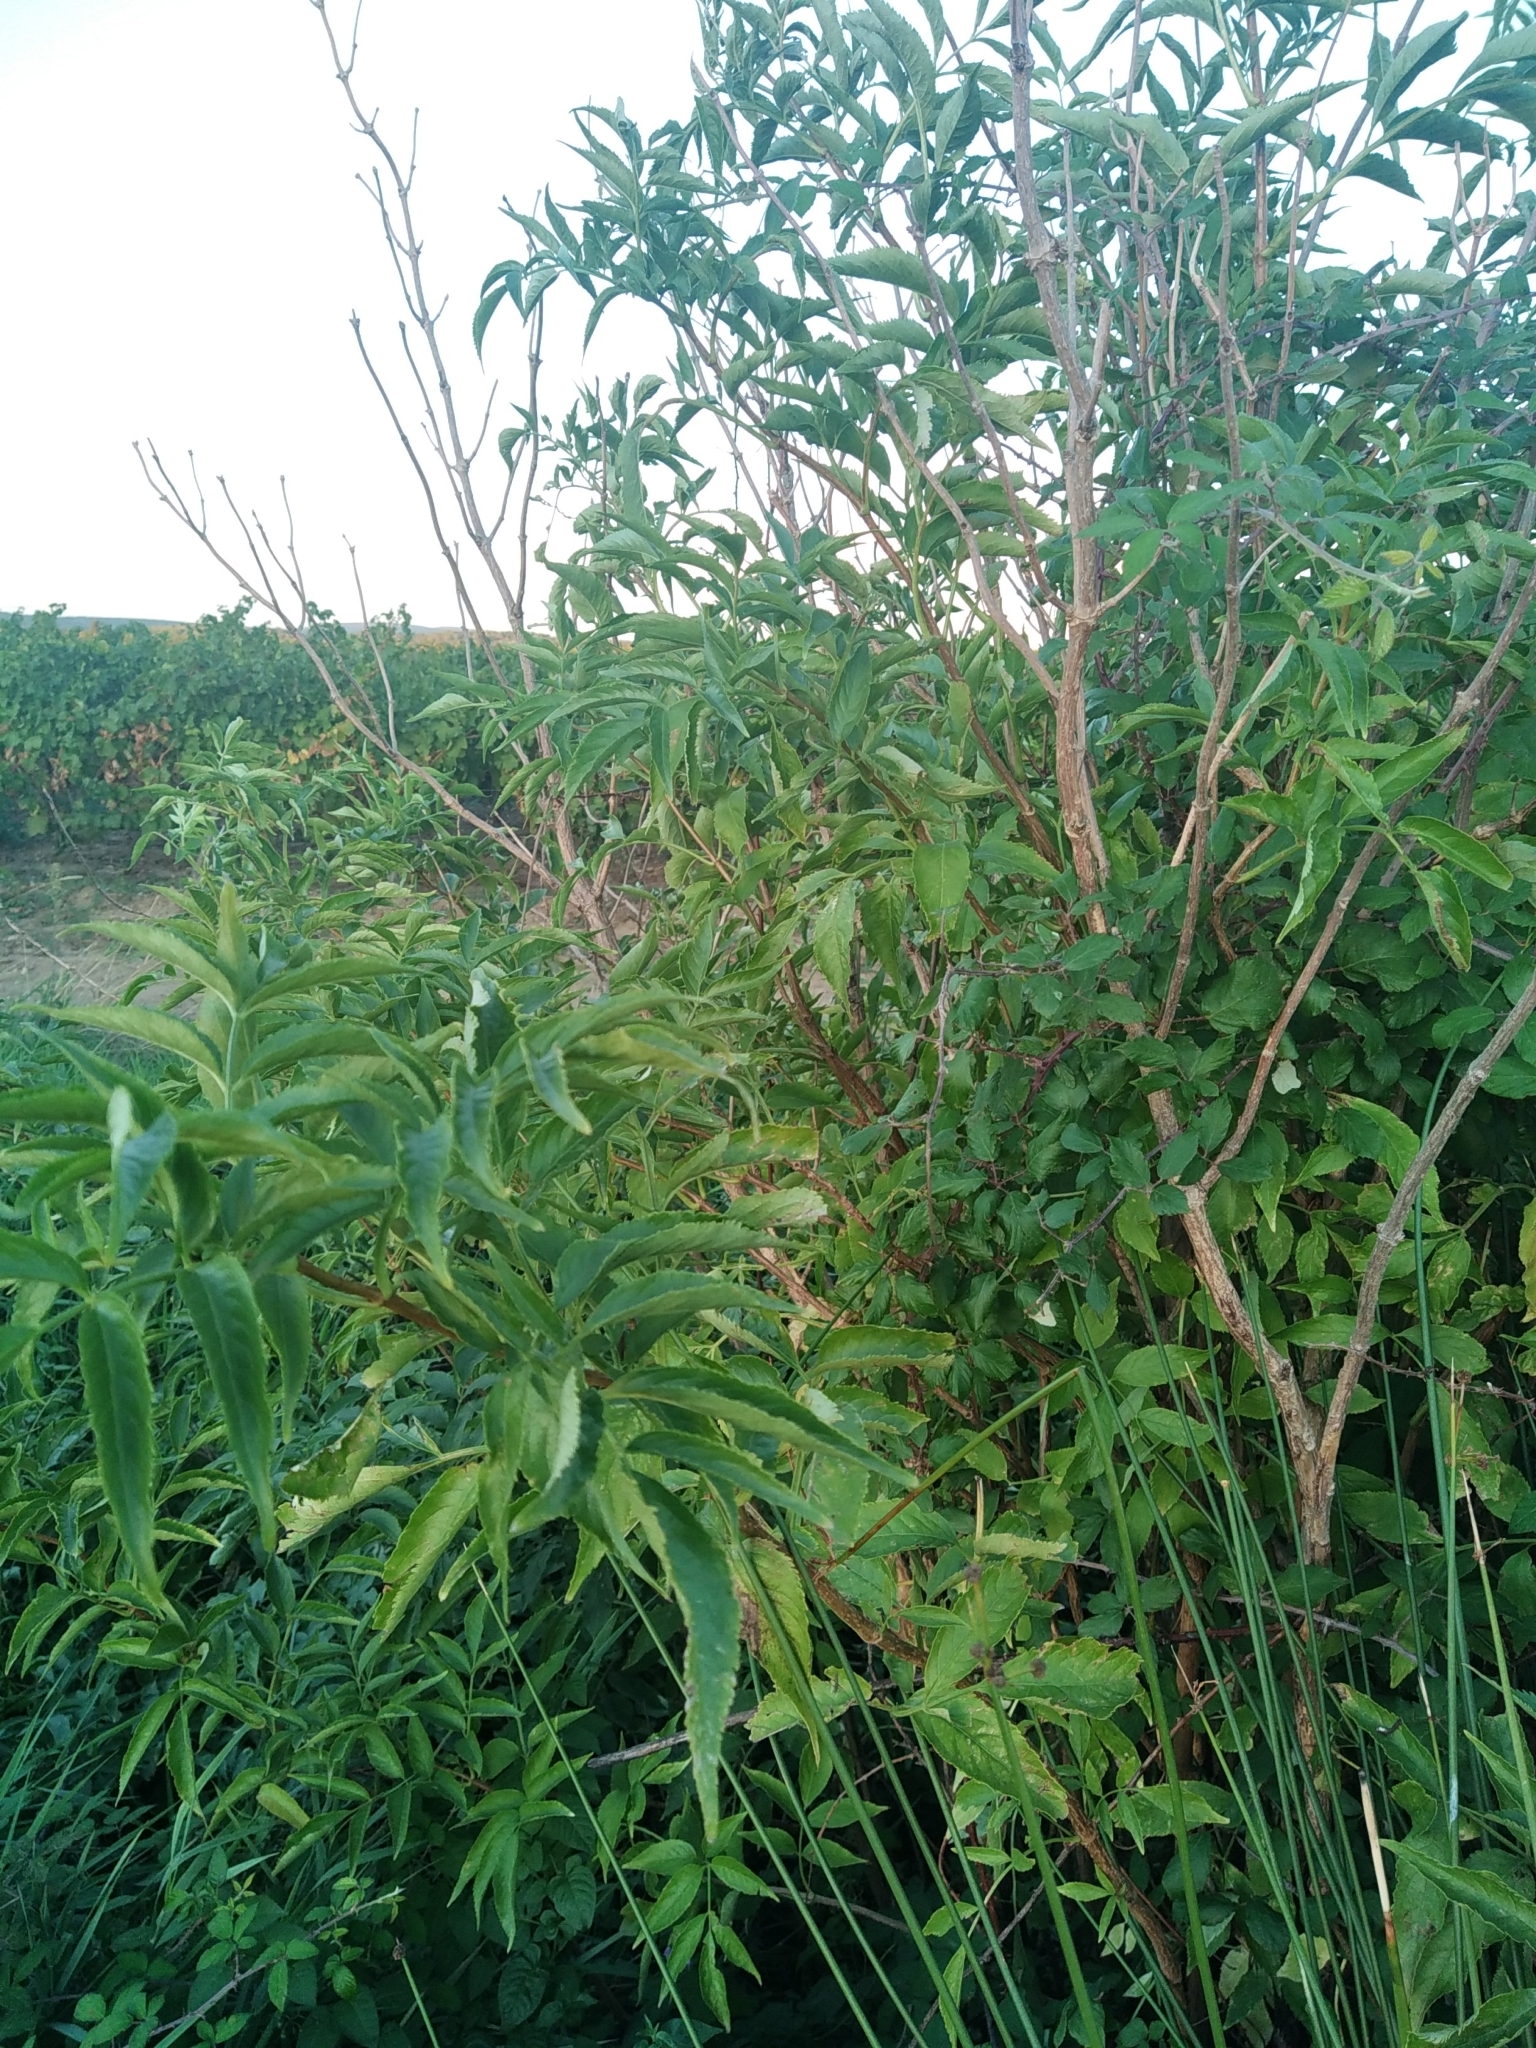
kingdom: Plantae
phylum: Tracheophyta
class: Magnoliopsida
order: Dipsacales
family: Viburnaceae
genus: Sambucus
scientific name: Sambucus nigra
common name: Elder
